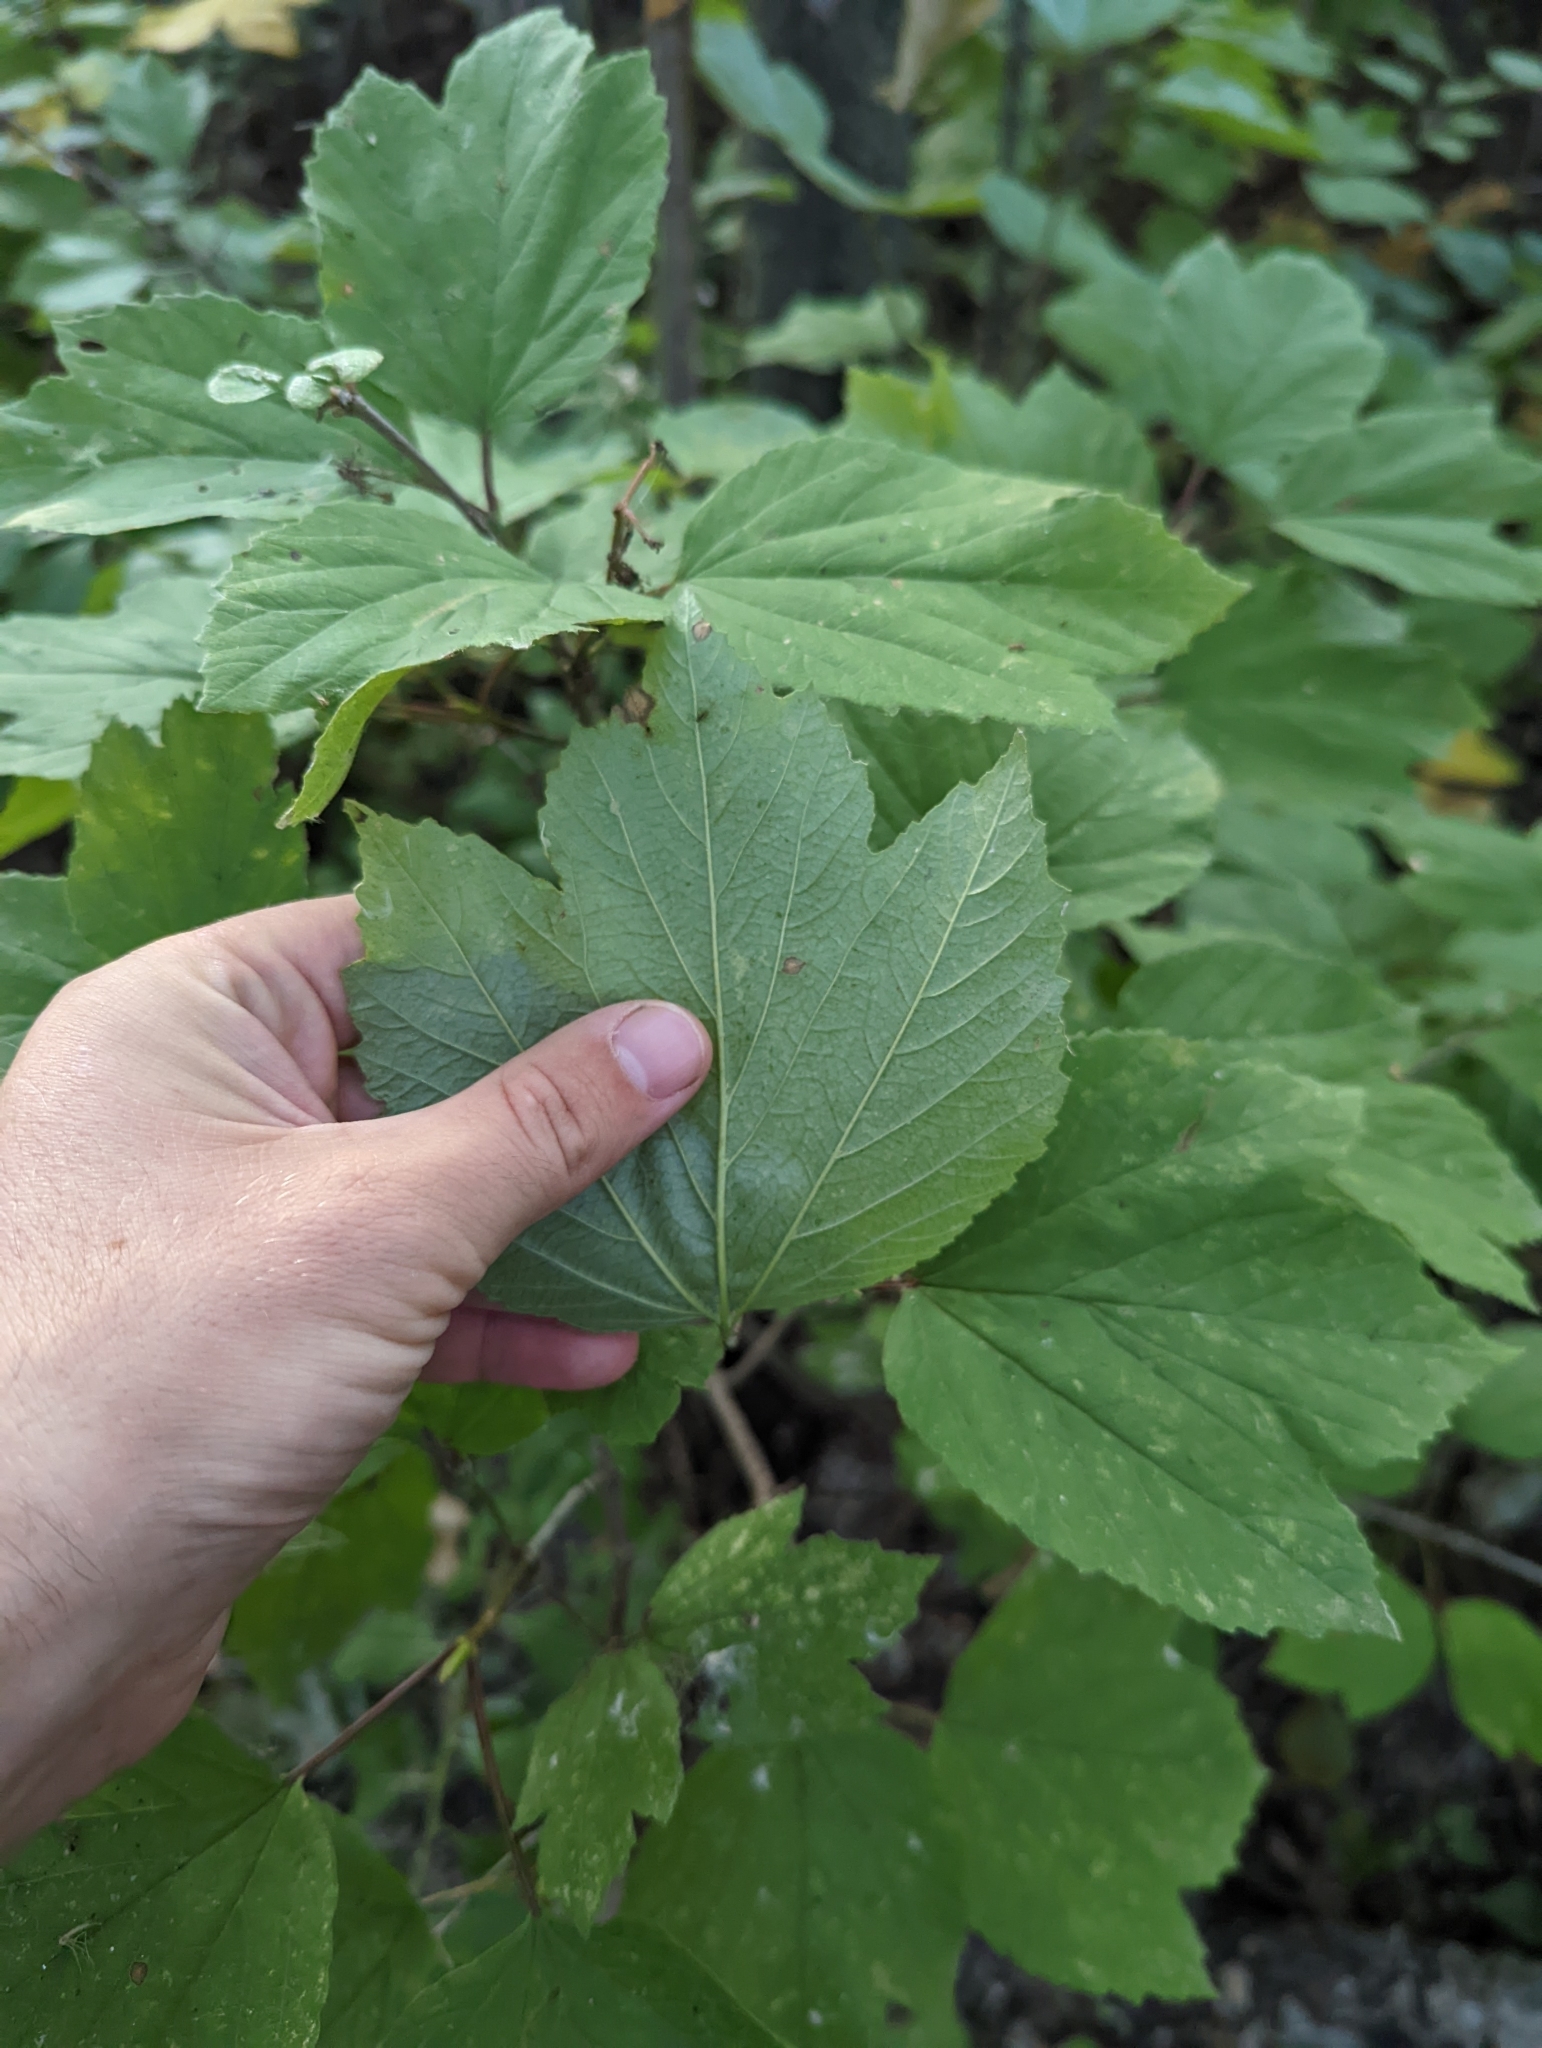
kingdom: Plantae
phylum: Tracheophyta
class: Magnoliopsida
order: Dipsacales
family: Viburnaceae
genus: Viburnum
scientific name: Viburnum edule
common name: Mooseberry
